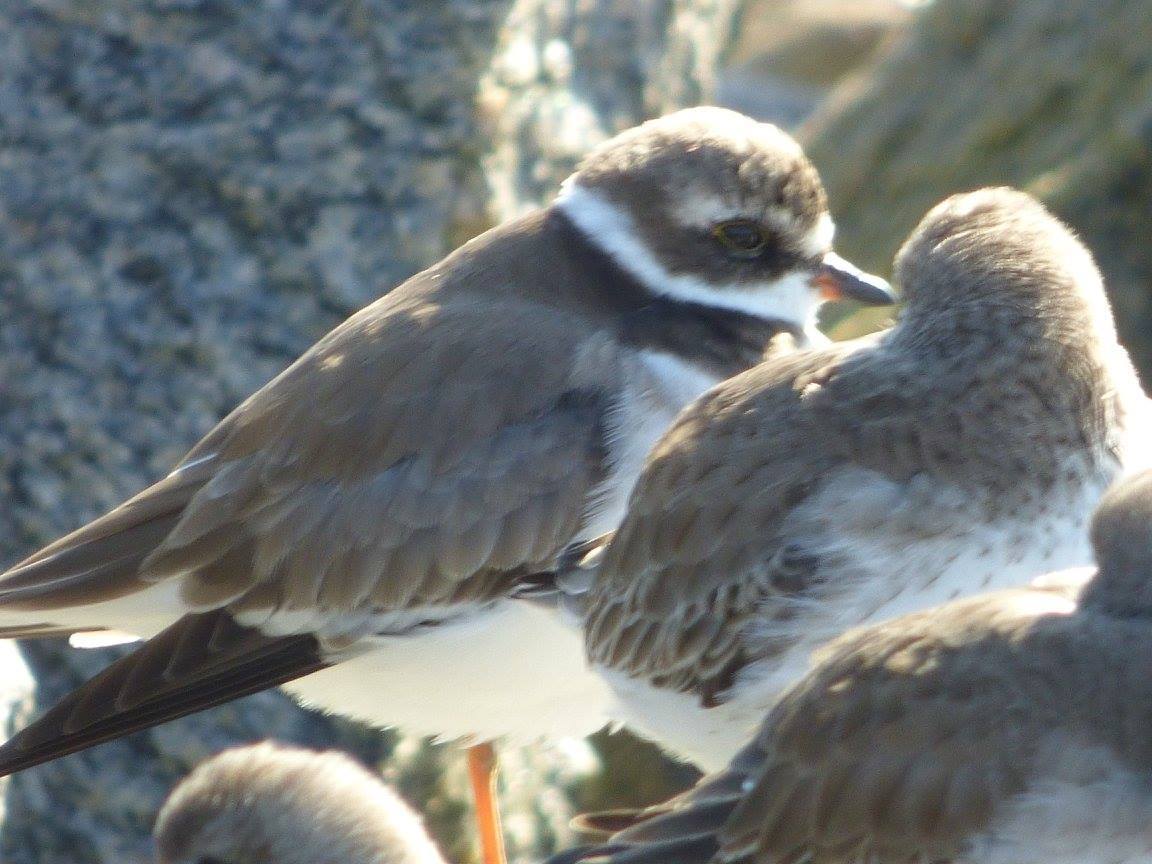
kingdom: Animalia
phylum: Chordata
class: Aves
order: Charadriiformes
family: Charadriidae
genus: Charadrius
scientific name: Charadrius semipalmatus
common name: Semipalmated plover
